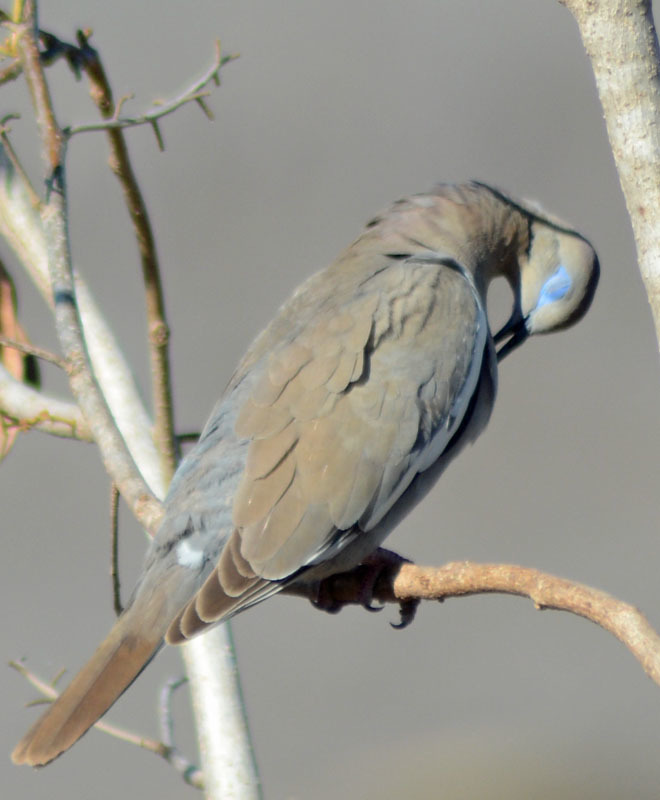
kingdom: Animalia
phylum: Chordata
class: Aves
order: Columbiformes
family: Columbidae
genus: Zenaida
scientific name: Zenaida asiatica
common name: White-winged dove
